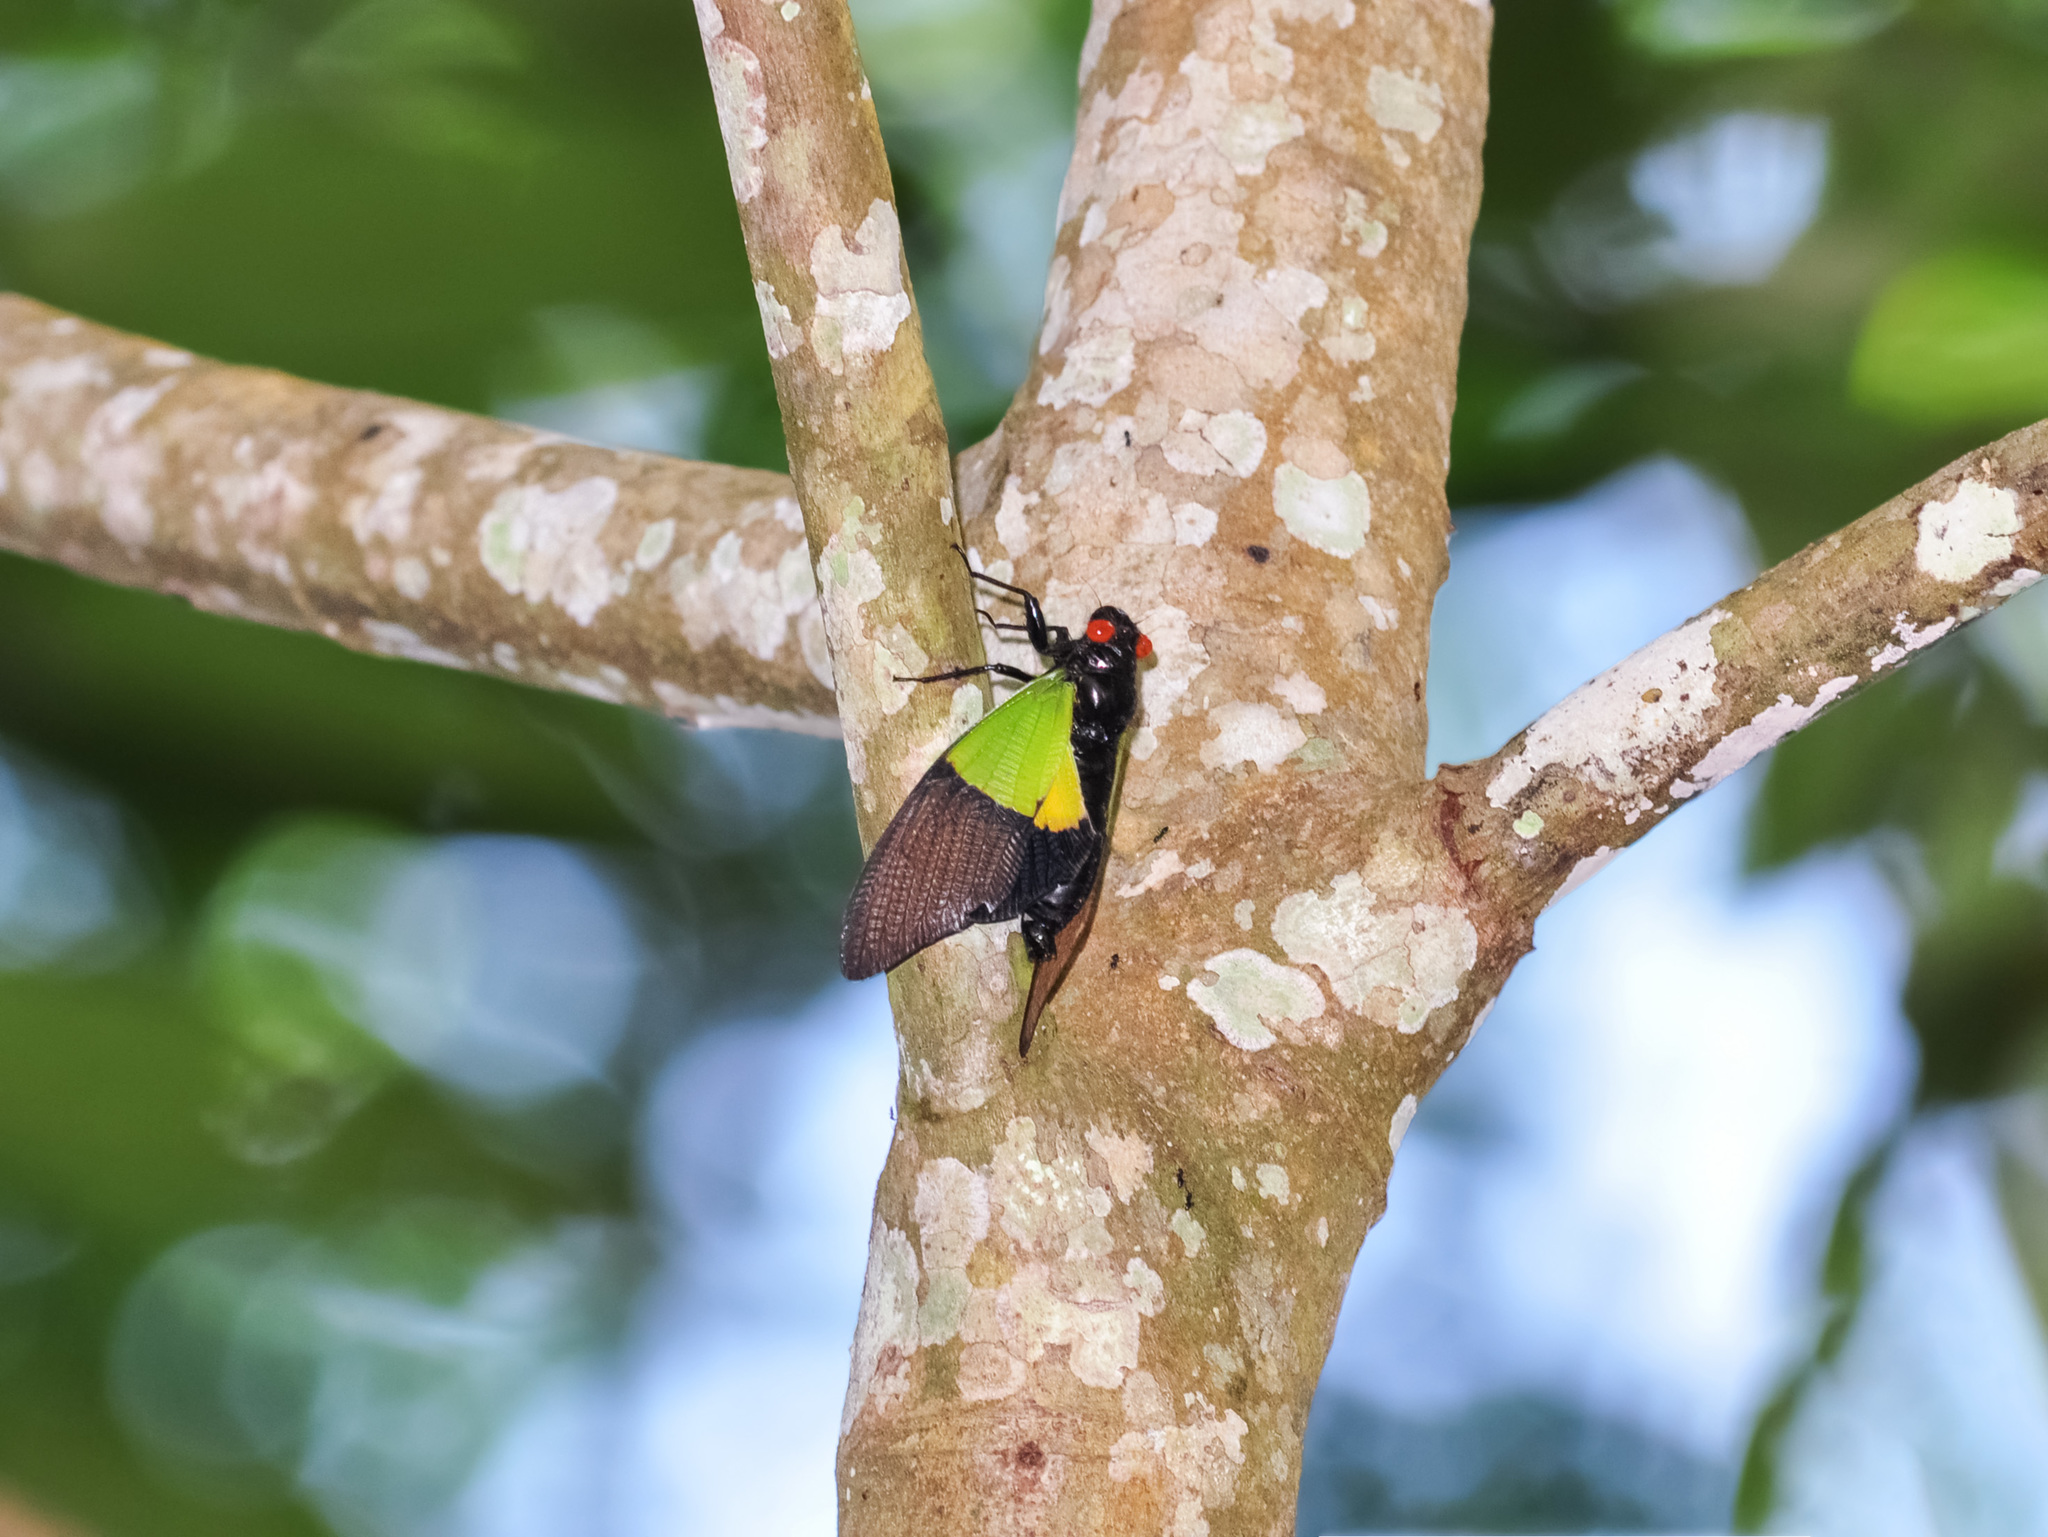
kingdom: Animalia
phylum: Arthropoda
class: Insecta
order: Hemiptera
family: Cicadidae
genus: Trengganua
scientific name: Trengganua sibylla
